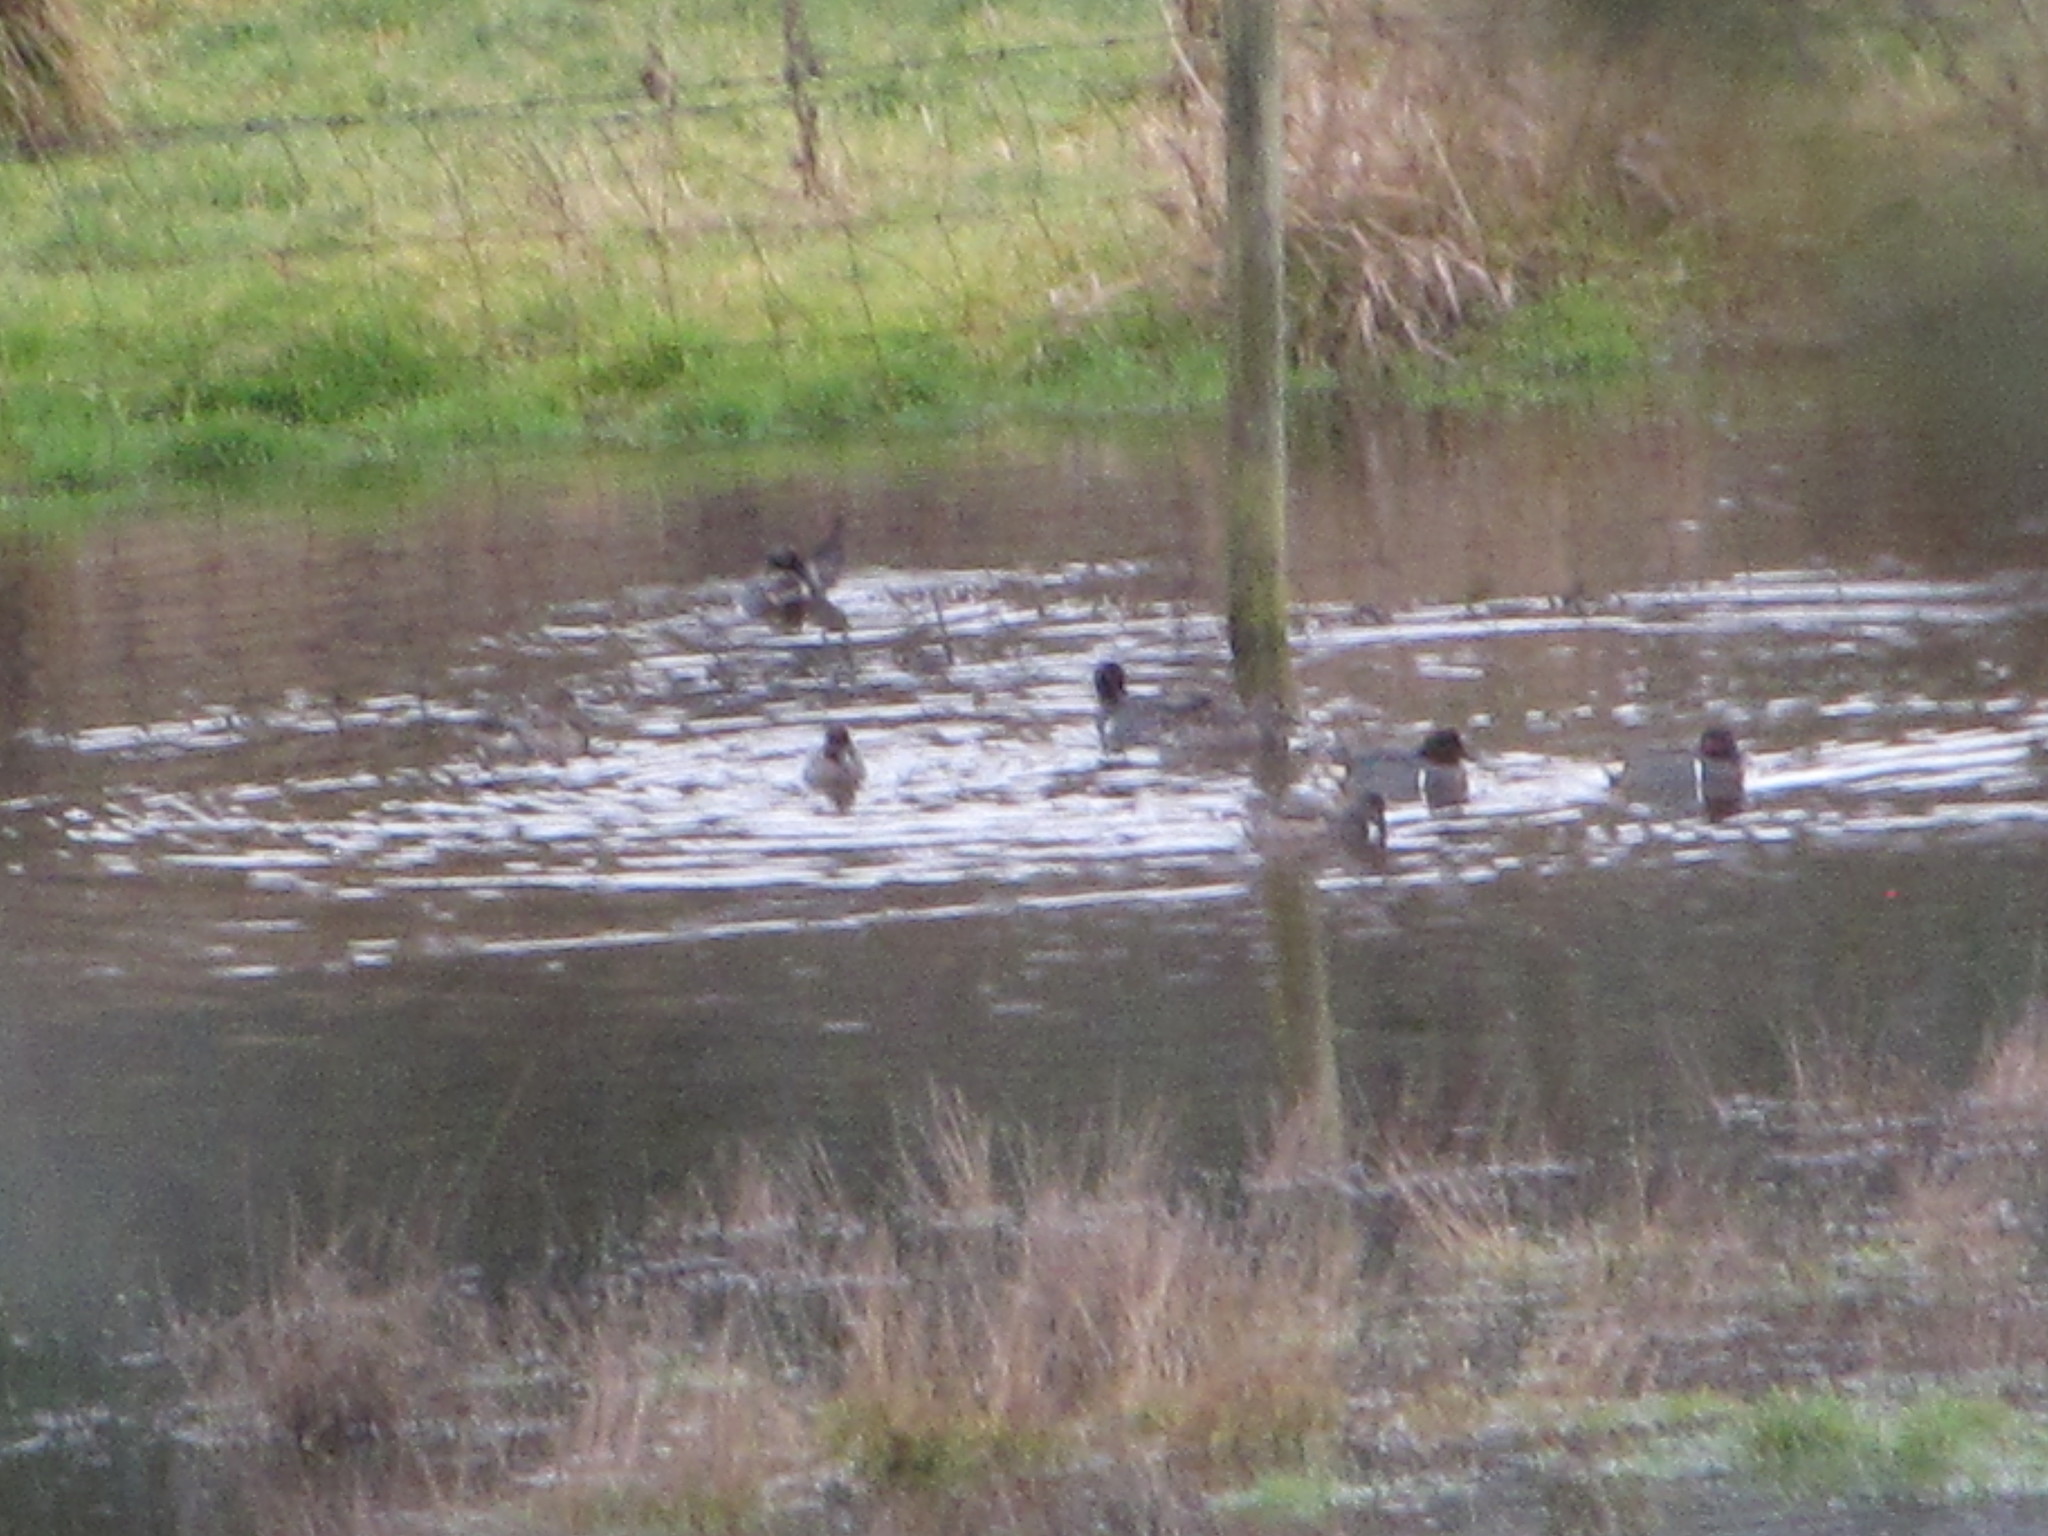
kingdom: Animalia
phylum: Chordata
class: Aves
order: Anseriformes
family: Anatidae
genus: Anas
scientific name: Anas crecca
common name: Eurasian teal
